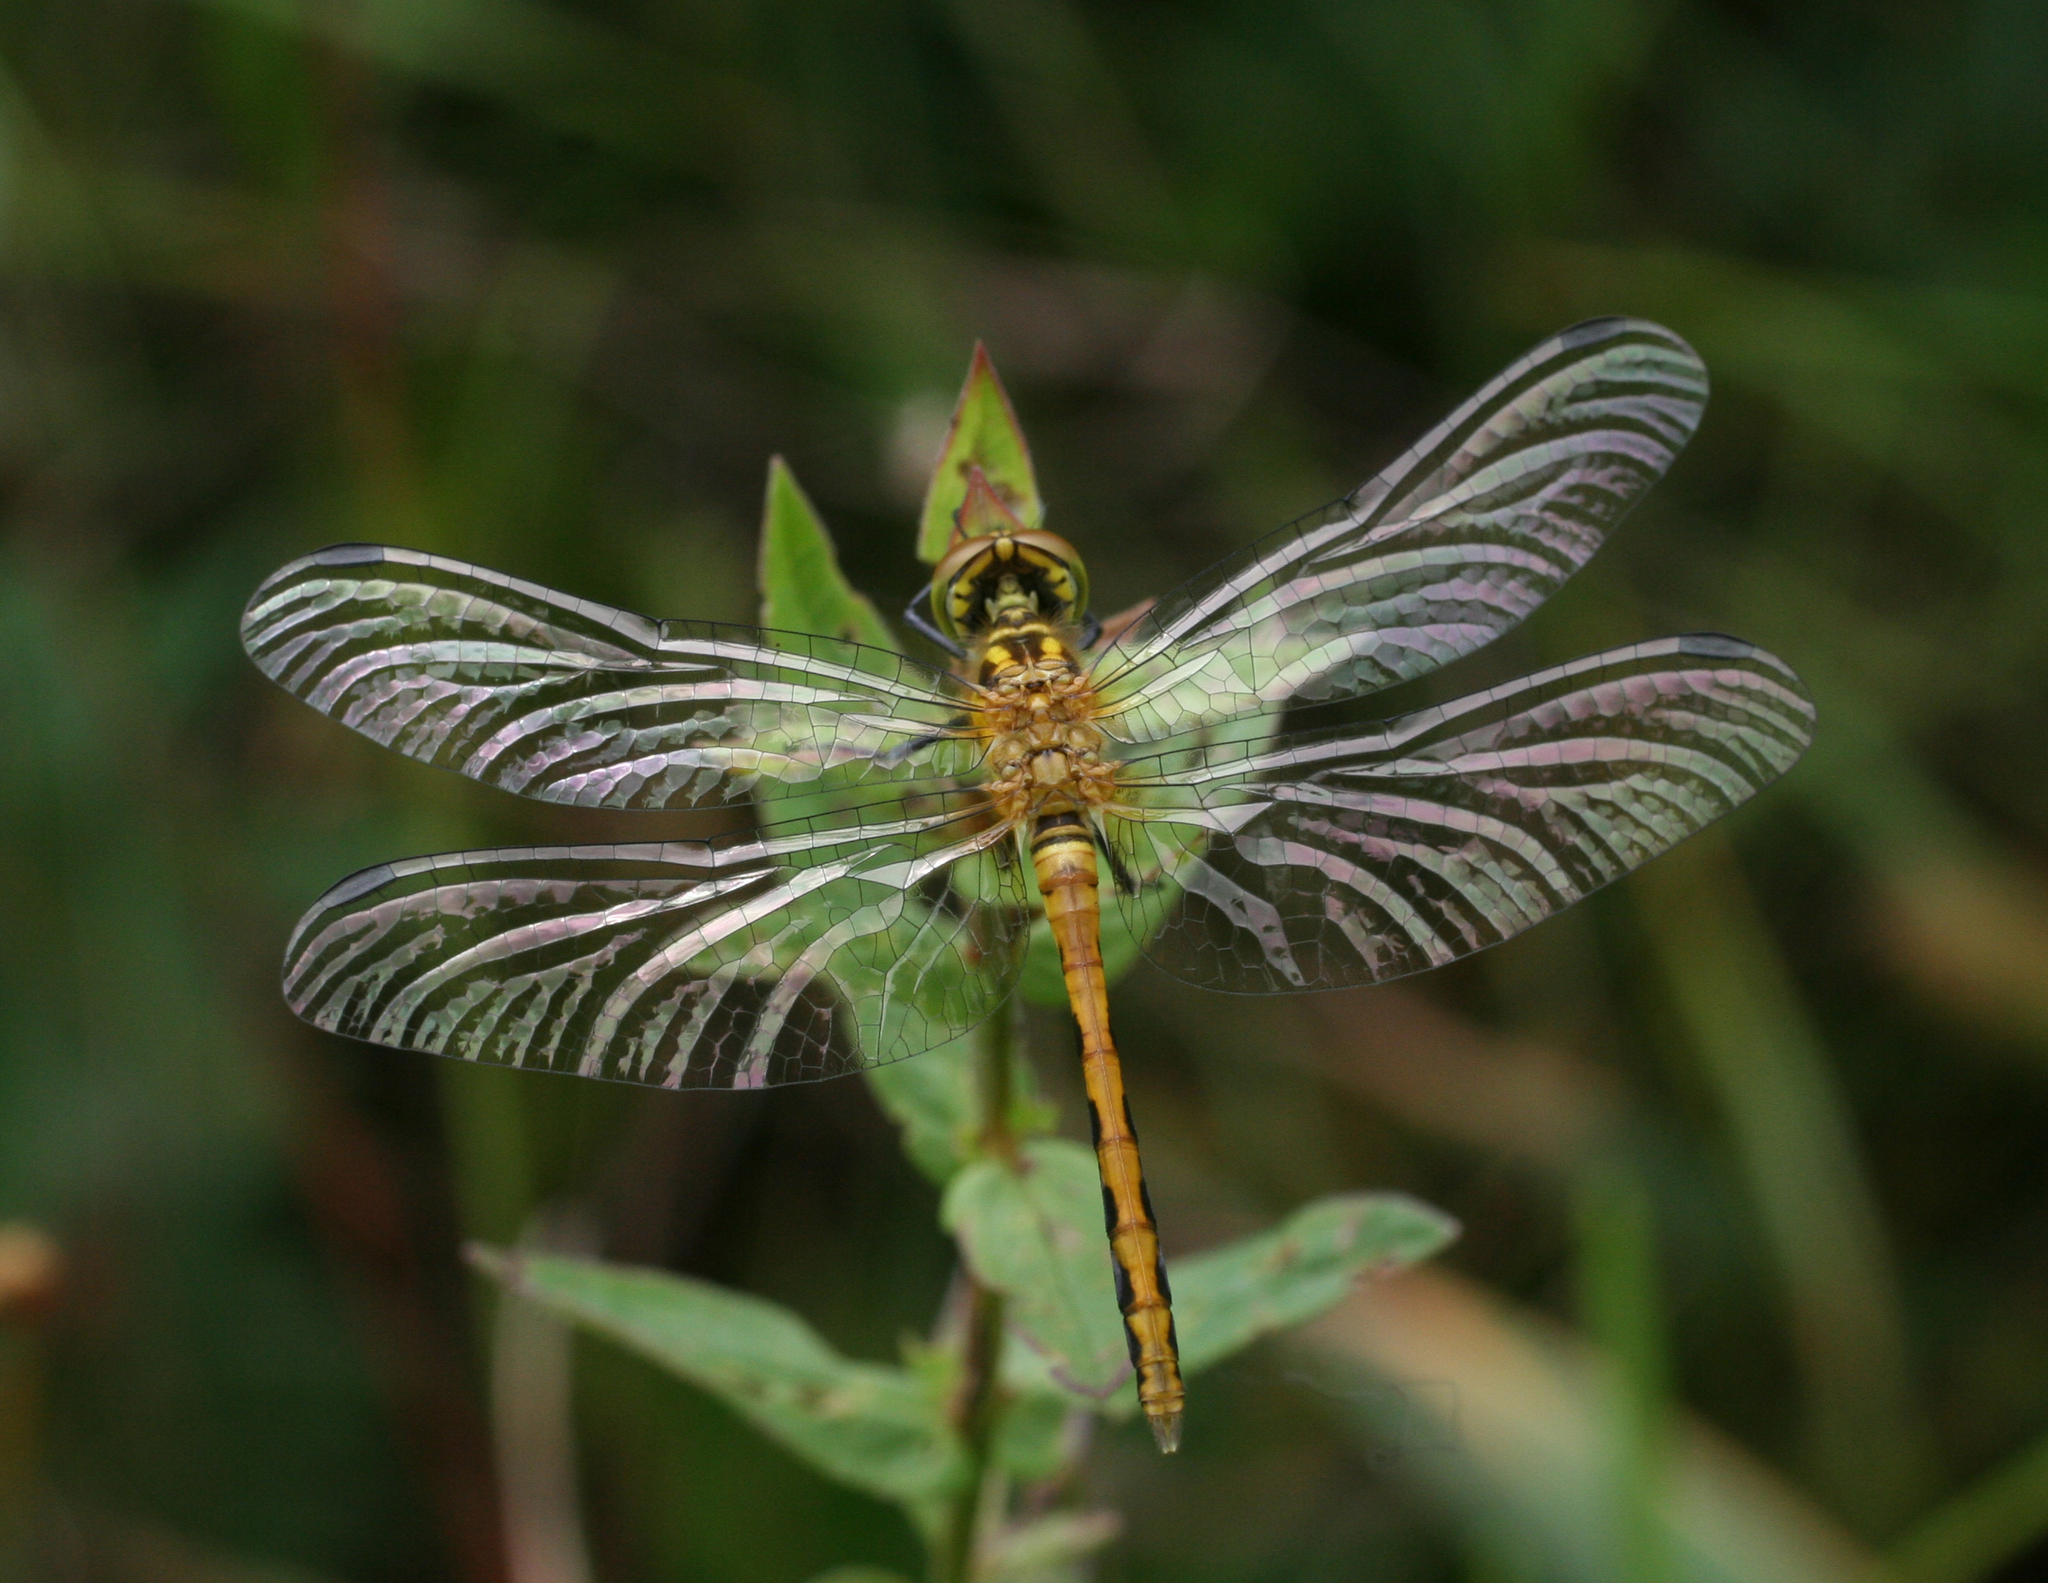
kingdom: Animalia
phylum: Arthropoda
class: Insecta
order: Odonata
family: Libellulidae
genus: Sympetrum
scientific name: Sympetrum parvulum
